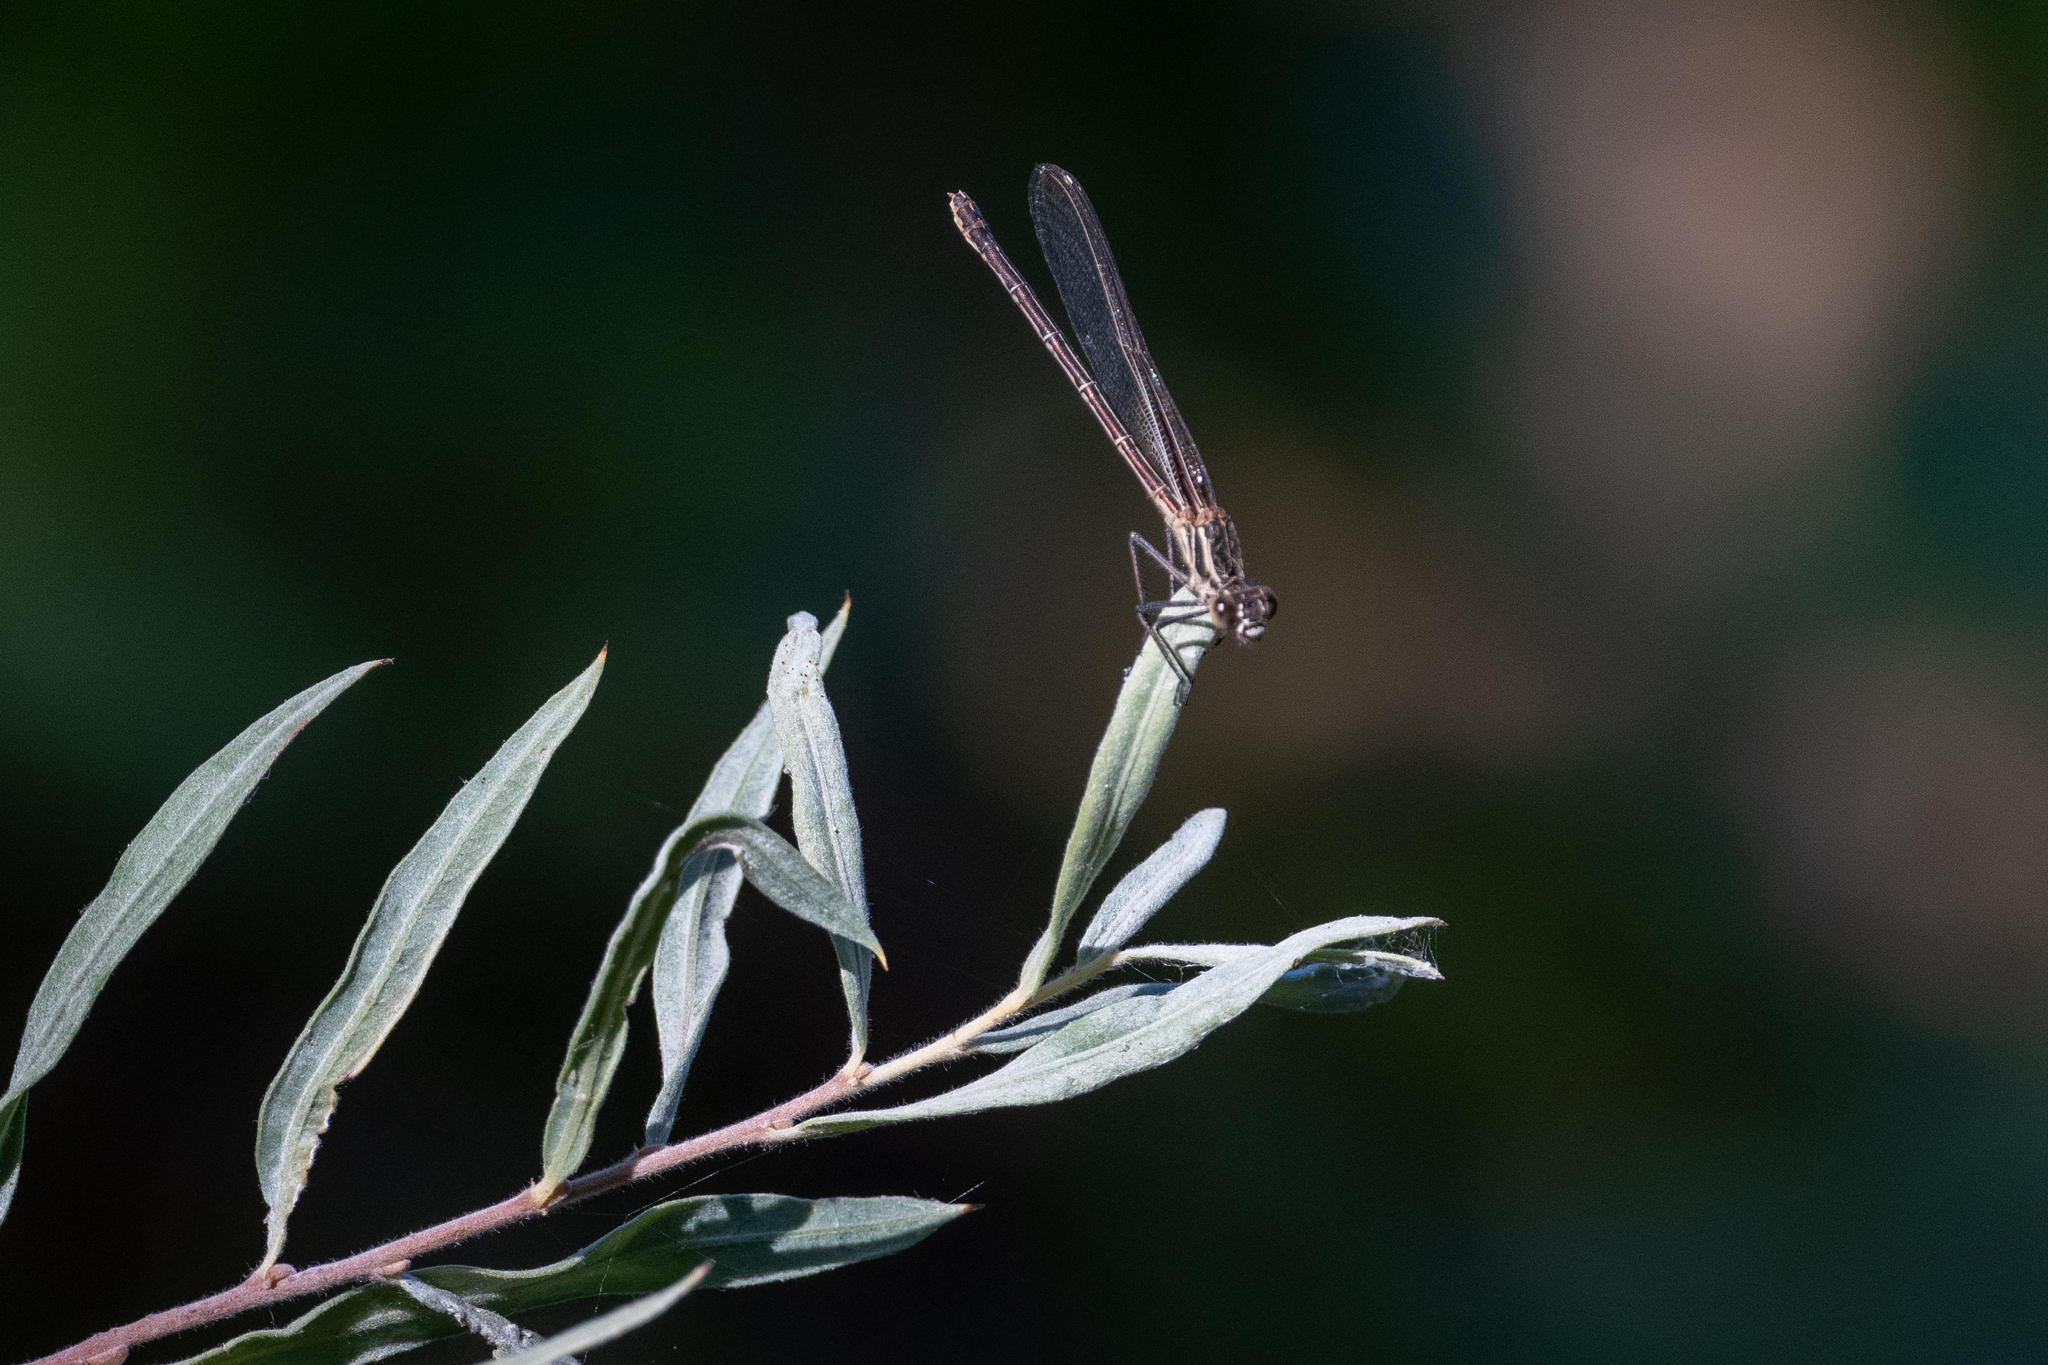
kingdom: Animalia
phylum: Arthropoda
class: Insecta
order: Odonata
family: Calopterygidae
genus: Hetaerina
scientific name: Hetaerina americana
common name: American rubyspot
